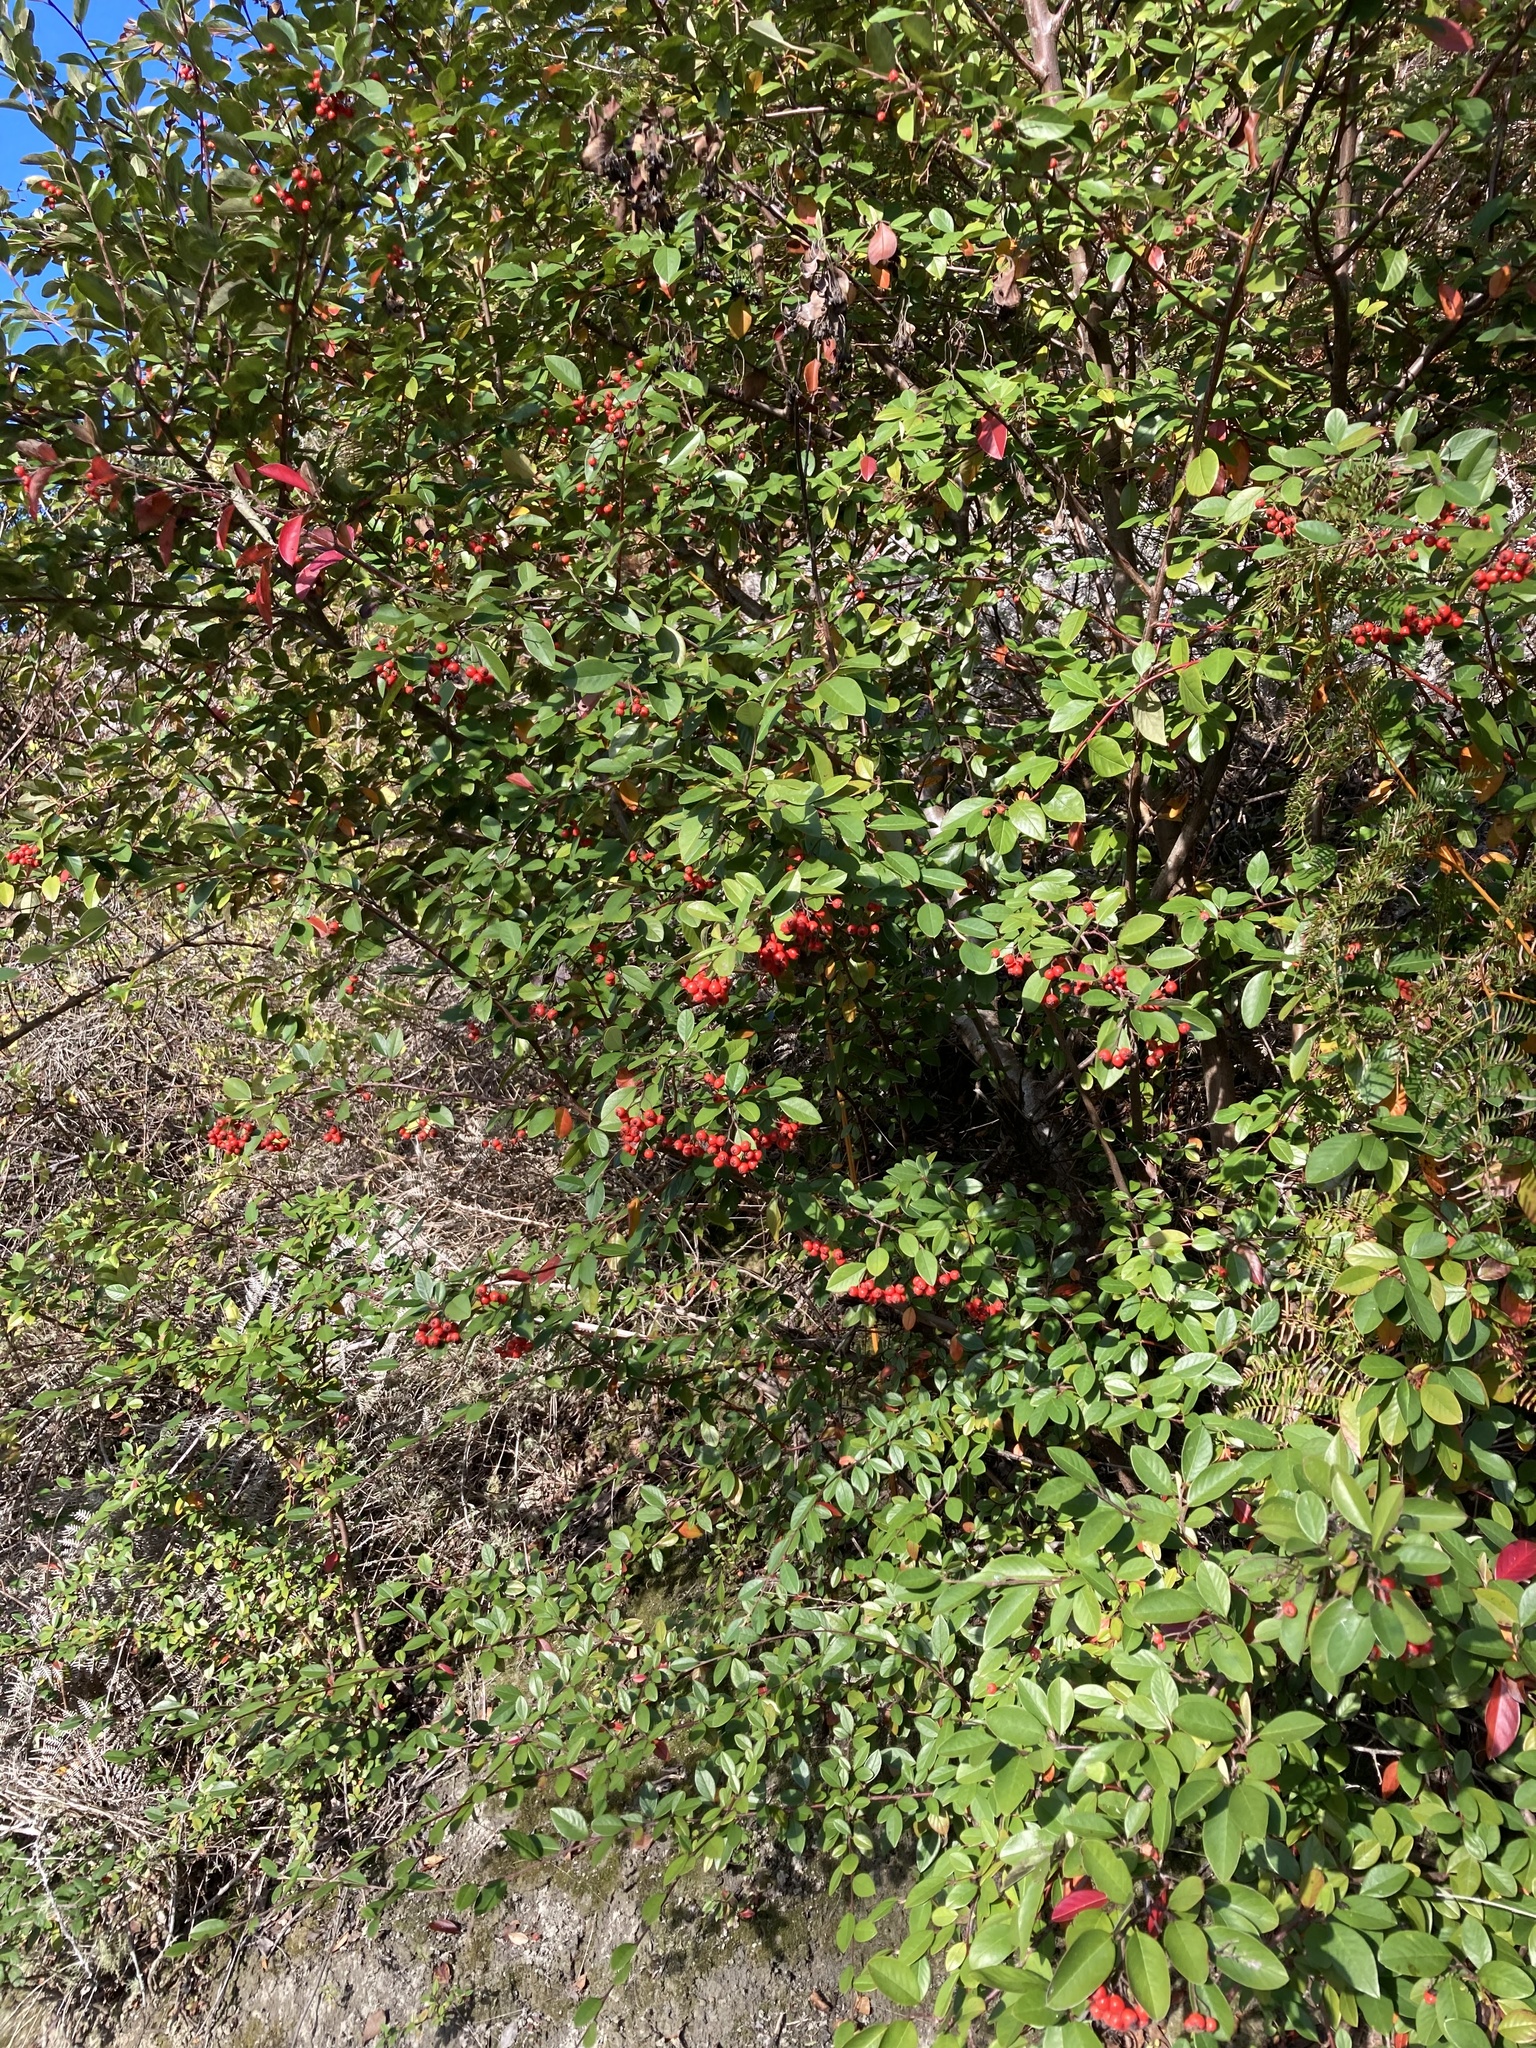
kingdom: Plantae
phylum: Tracheophyta
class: Magnoliopsida
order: Rosales
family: Rosaceae
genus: Cotoneaster
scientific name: Cotoneaster glaucophyllus
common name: Glaucous cotoneaster
